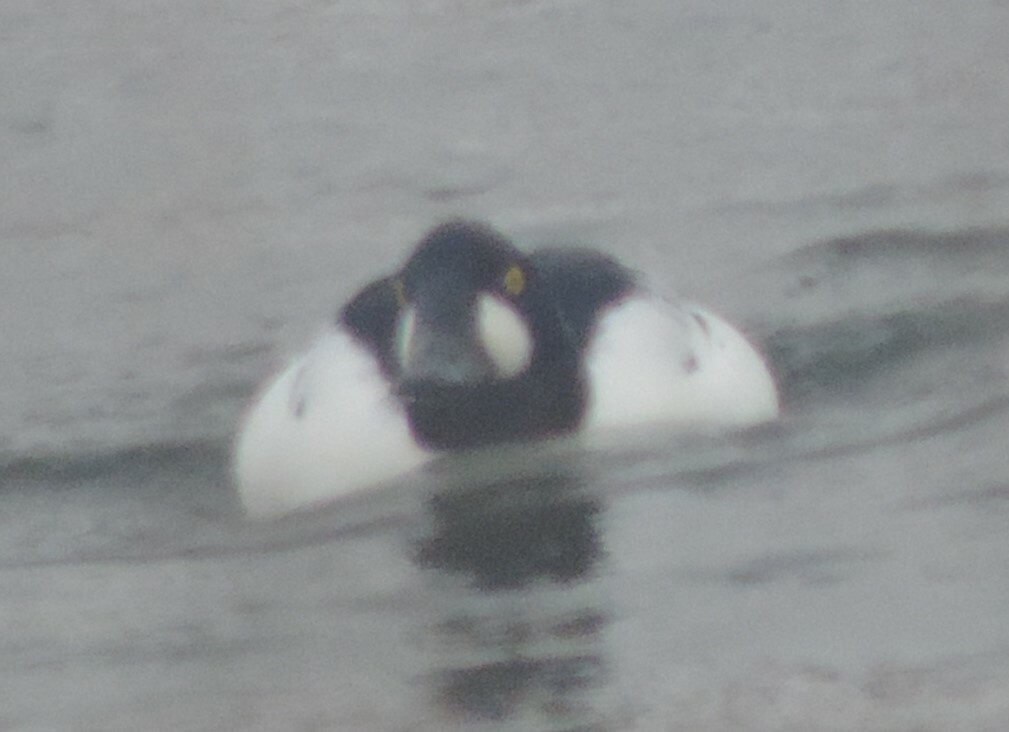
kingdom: Animalia
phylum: Chordata
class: Aves
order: Anseriformes
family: Anatidae
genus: Bucephala
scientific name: Bucephala clangula
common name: Common goldeneye
